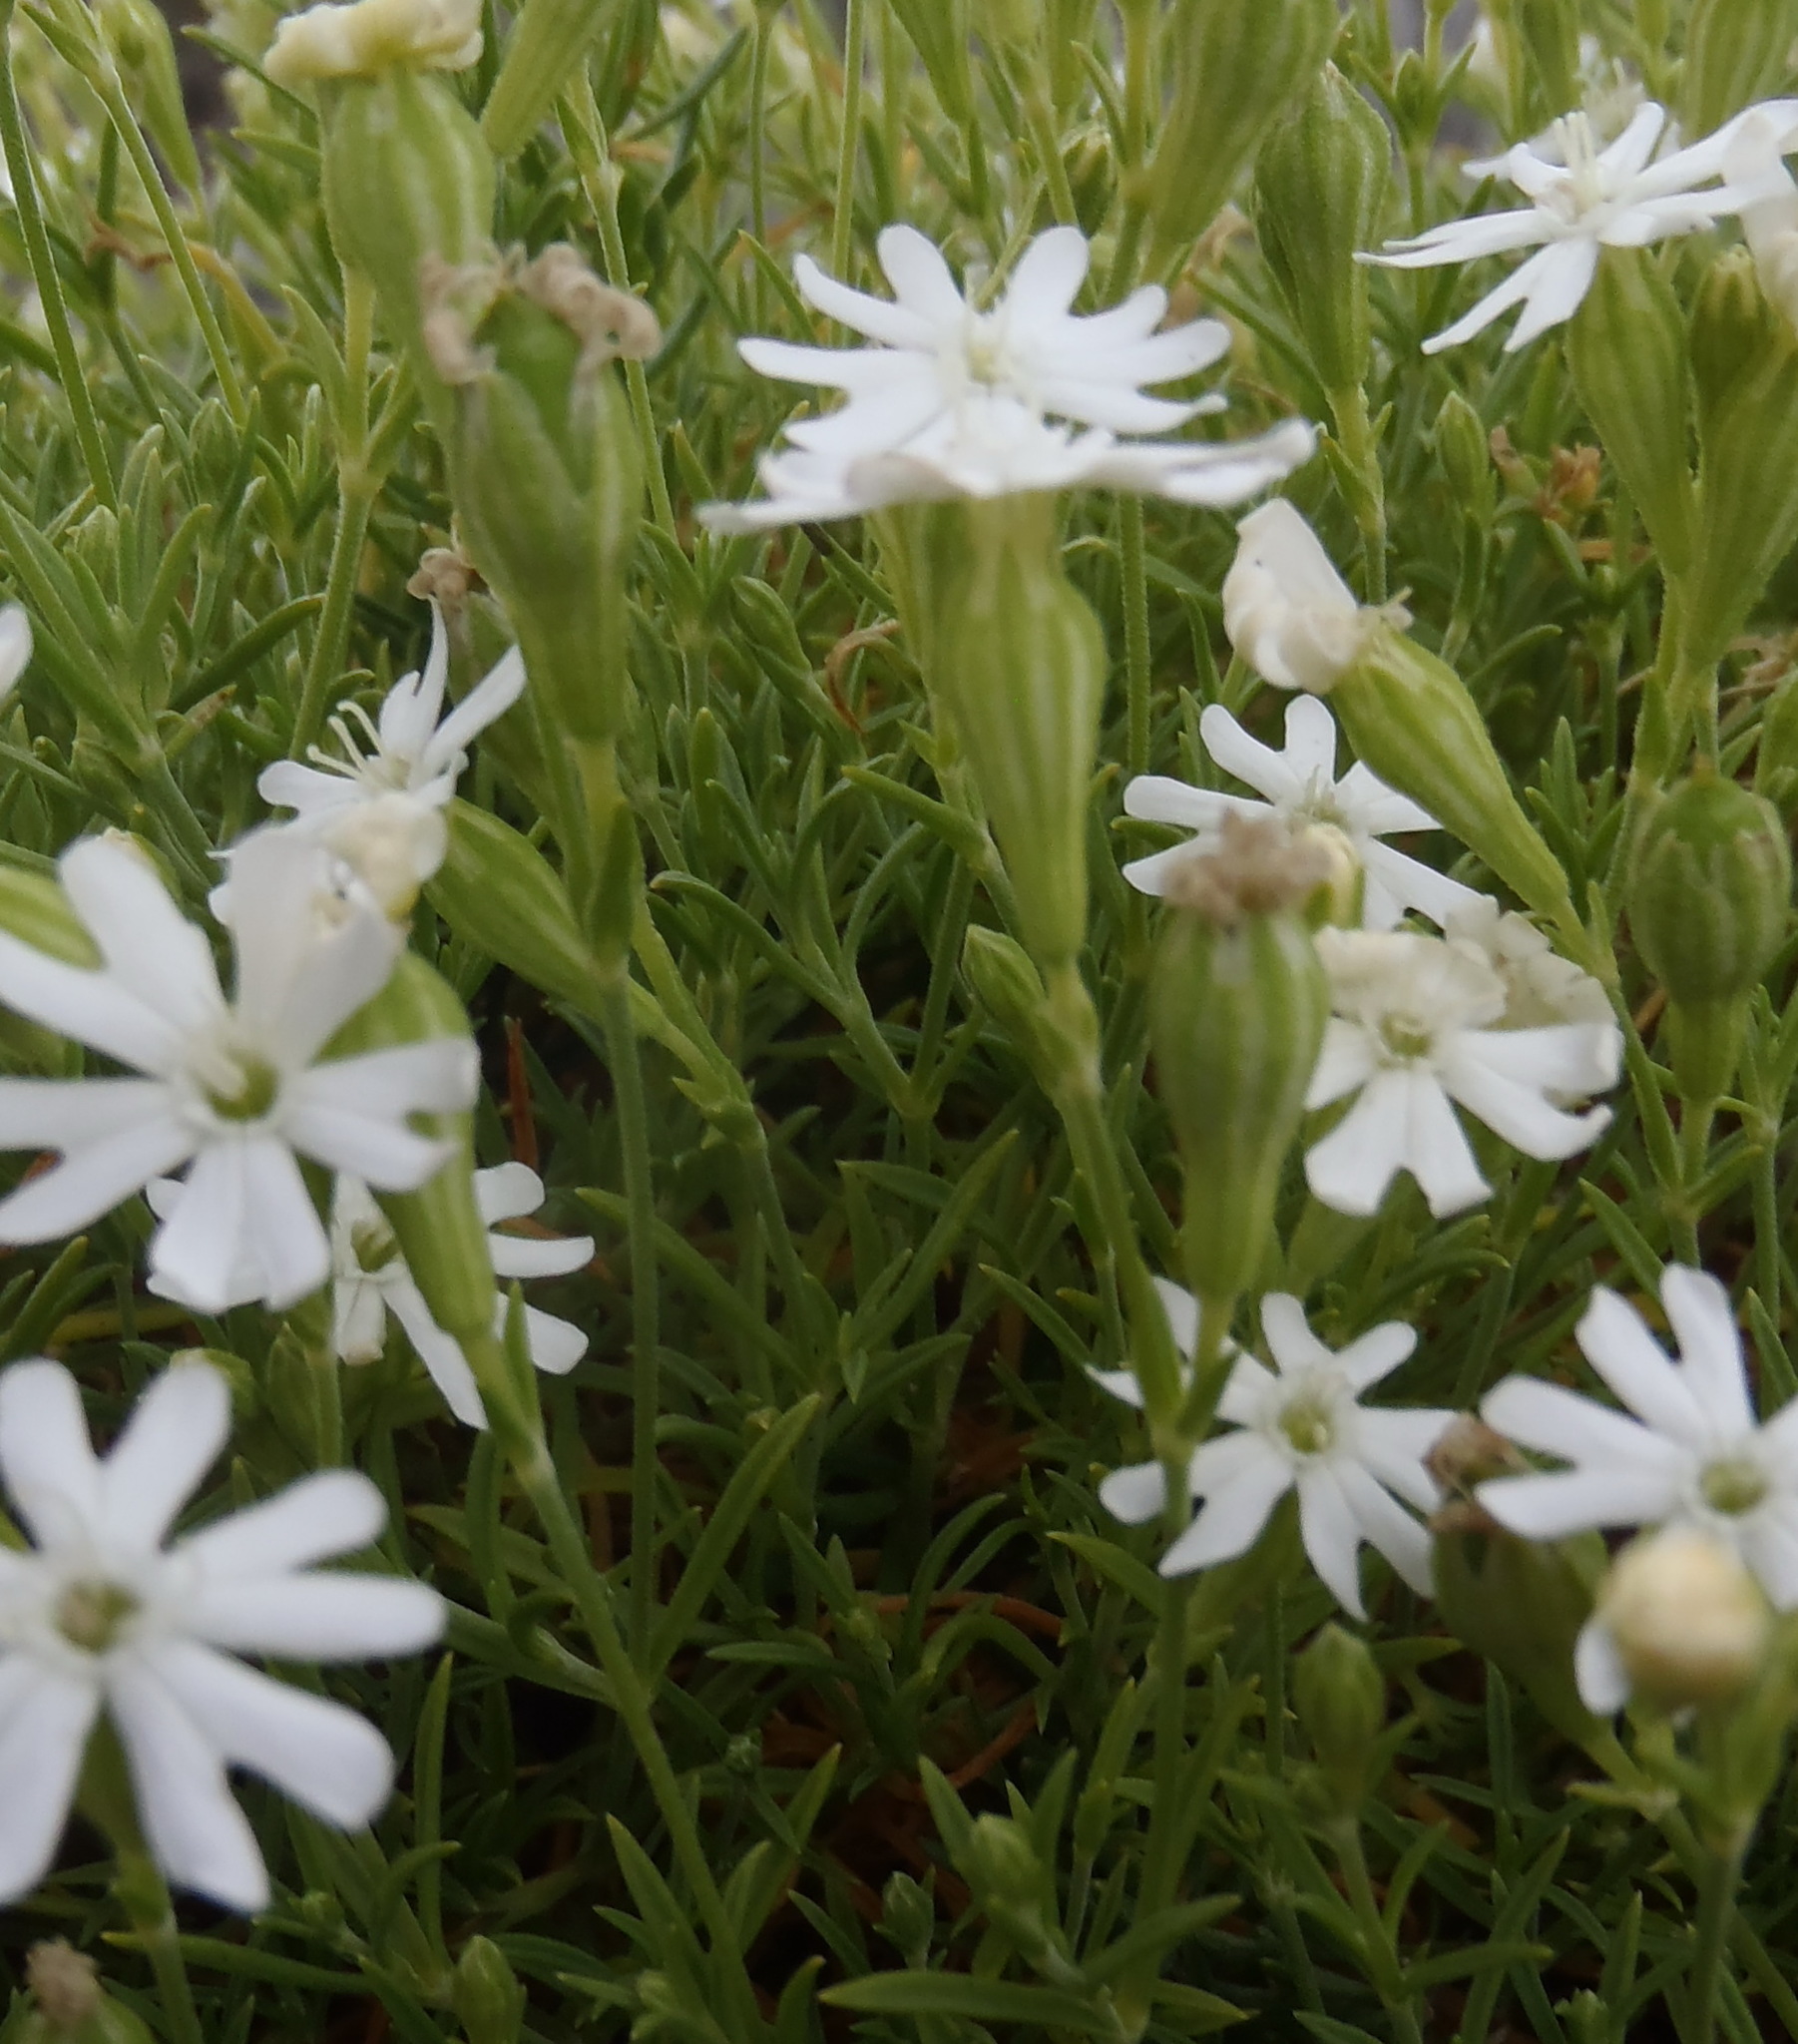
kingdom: Plantae
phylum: Tracheophyta
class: Magnoliopsida
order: Caryophyllales
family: Caryophyllaceae
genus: Silene
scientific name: Silene mundiana
